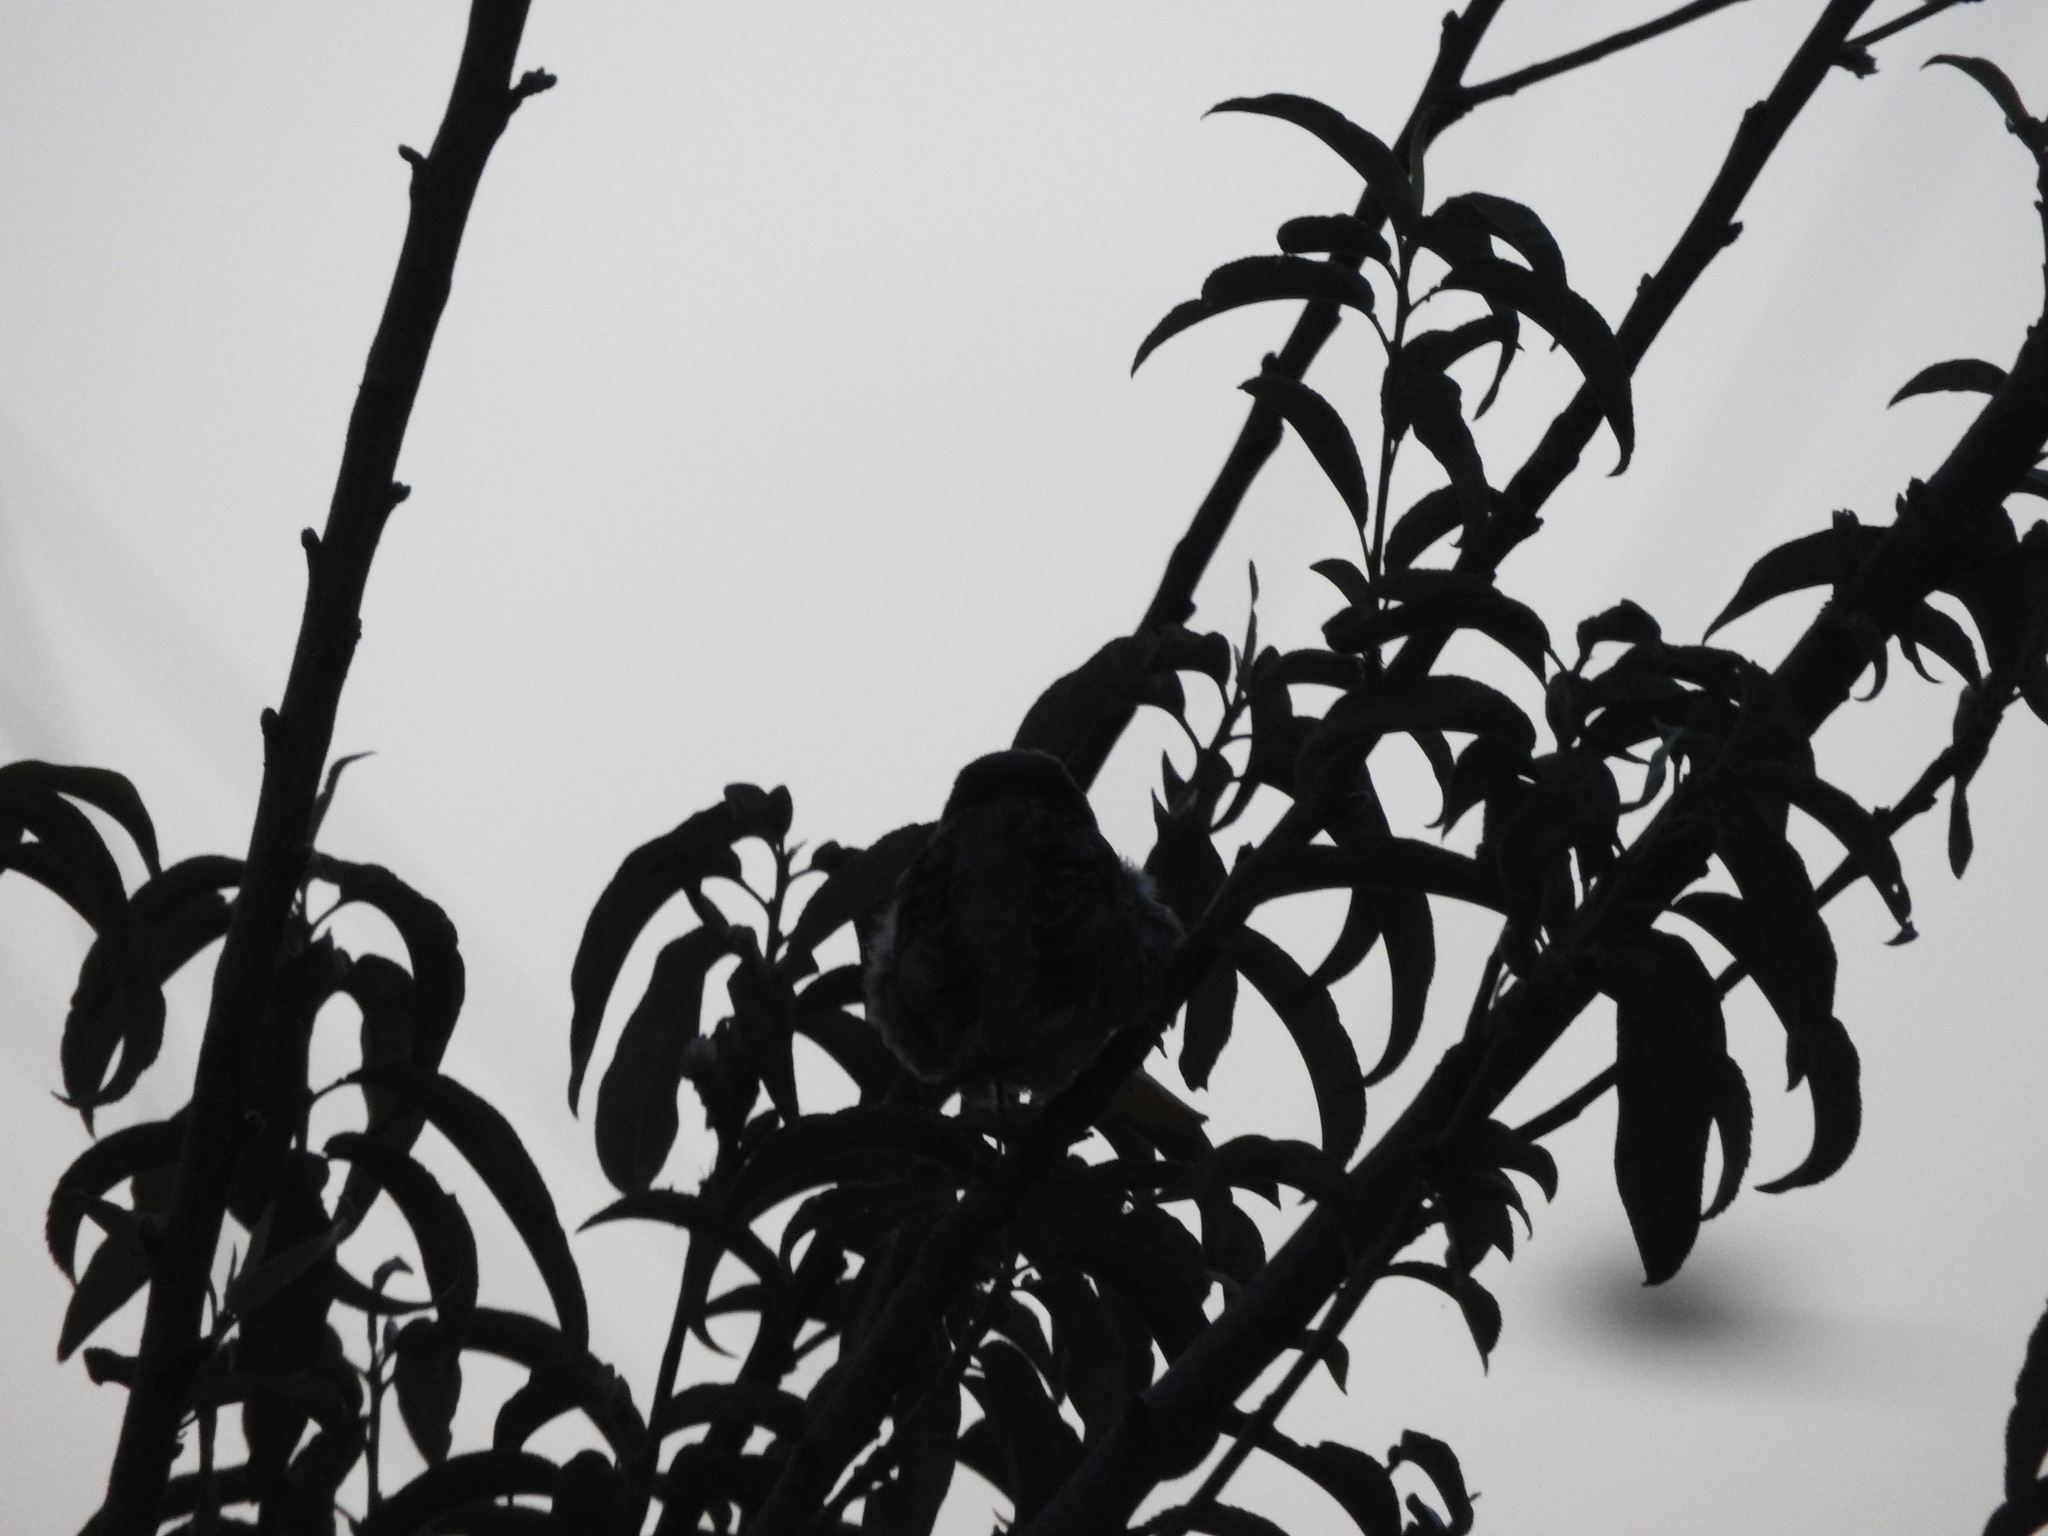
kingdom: Animalia
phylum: Chordata
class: Aves
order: Passeriformes
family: Passeridae
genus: Passer
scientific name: Passer domesticus
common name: House sparrow
